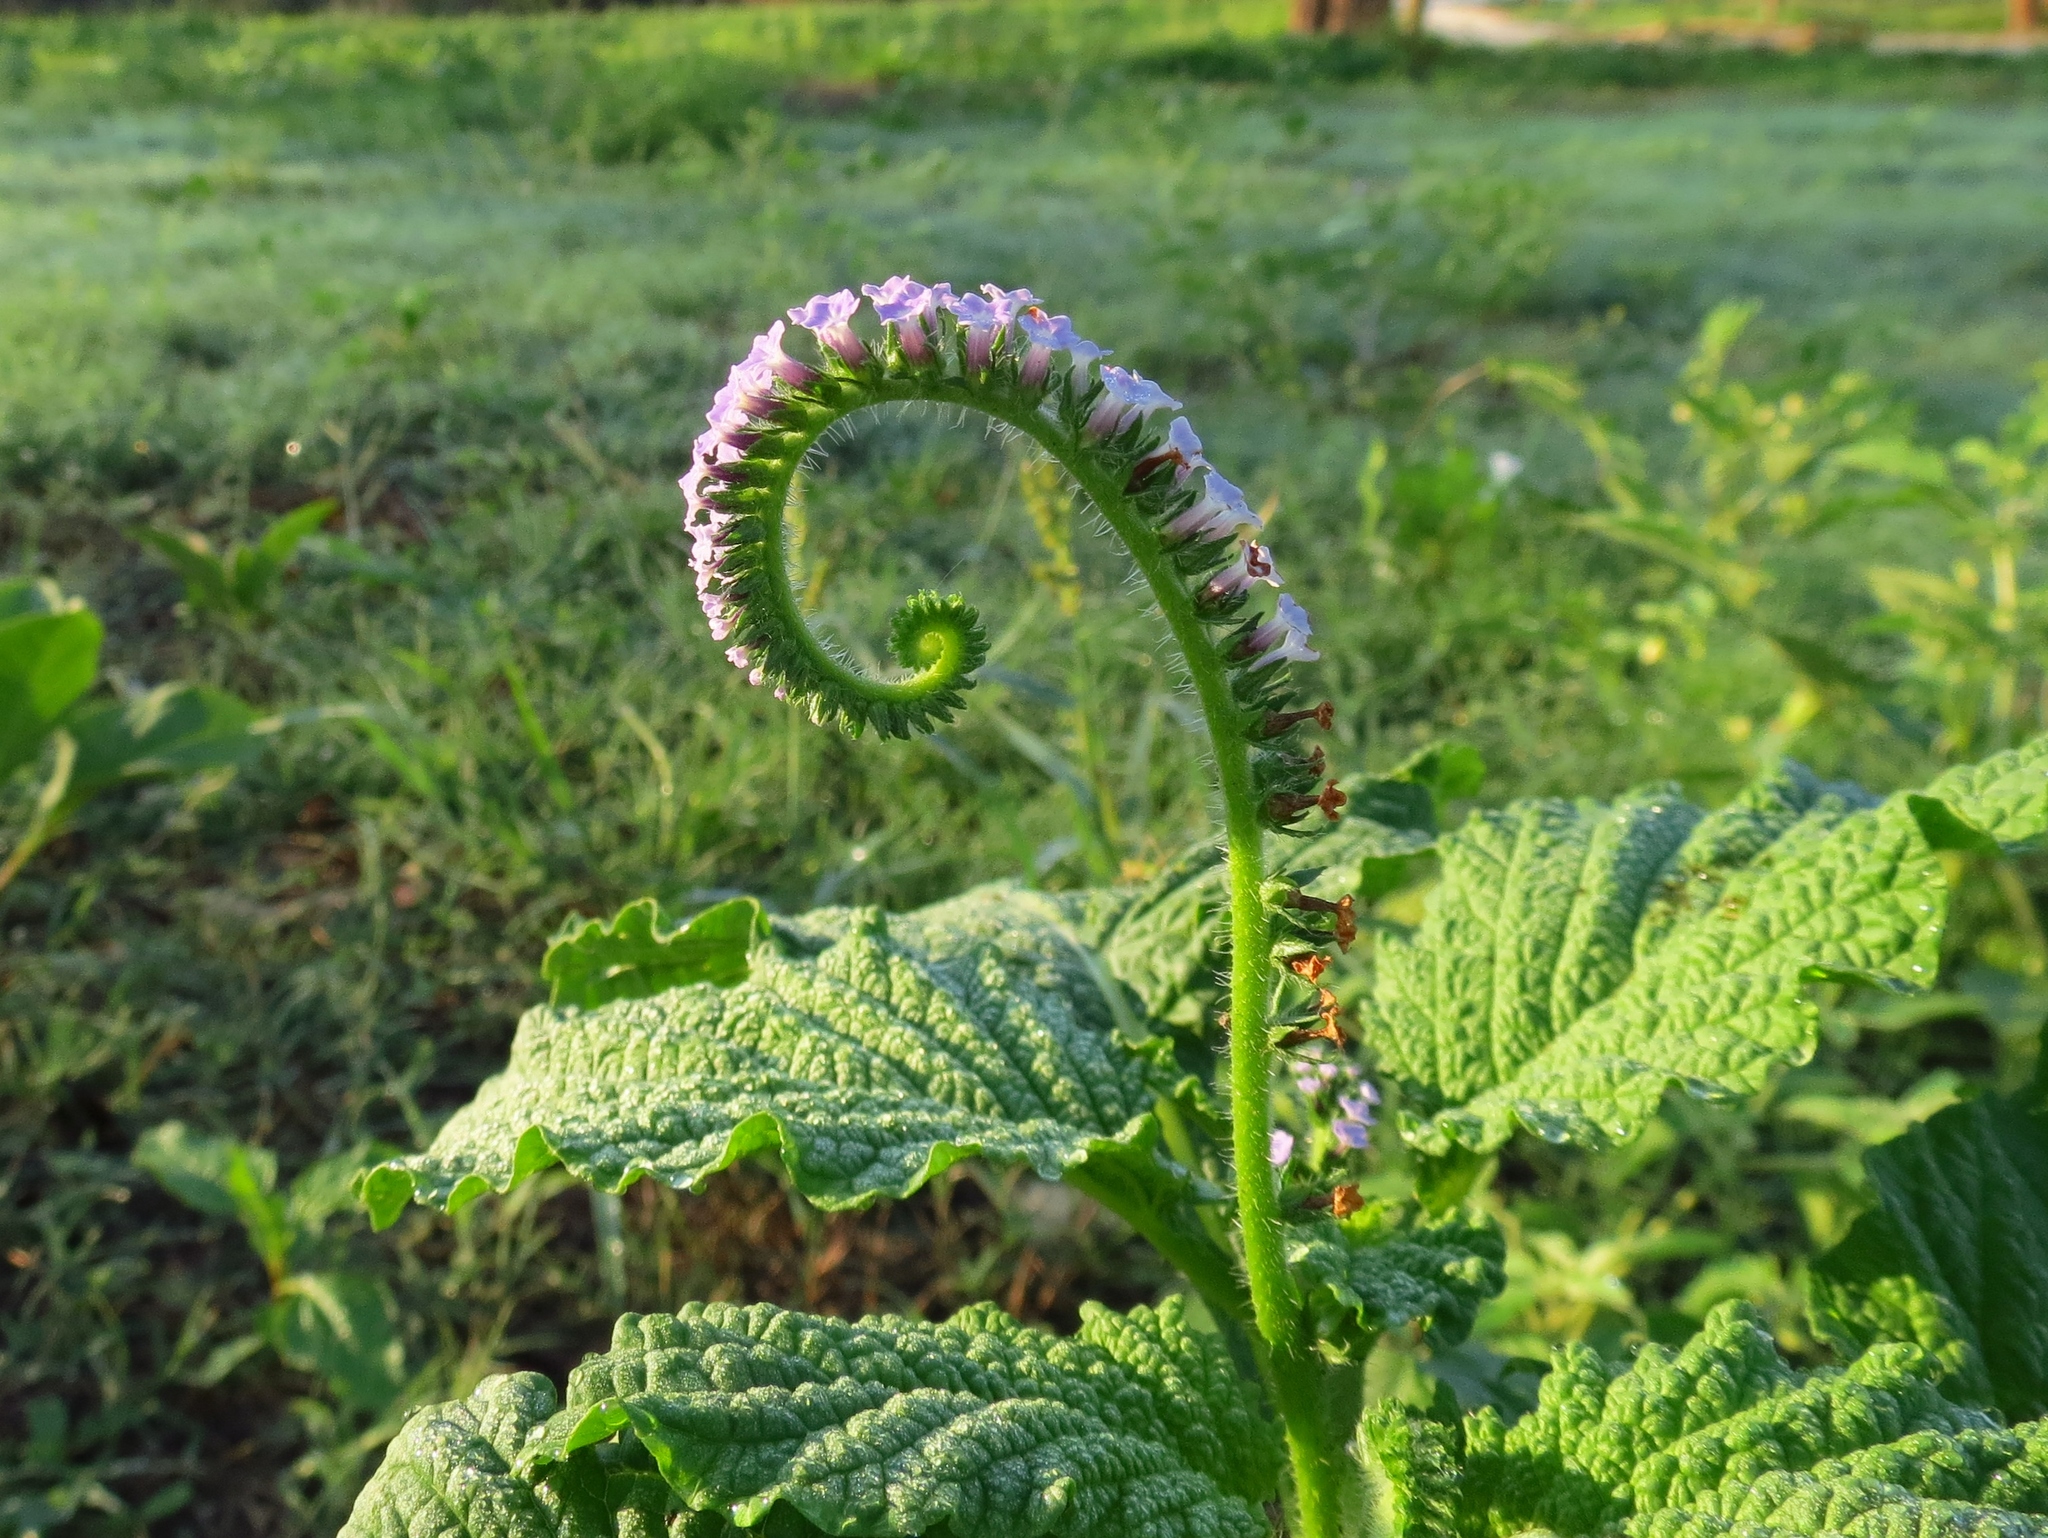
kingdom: Plantae
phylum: Tracheophyta
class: Magnoliopsida
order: Boraginales
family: Heliotropiaceae
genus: Heliotropium
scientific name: Heliotropium indicum
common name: Indian heliotrope
